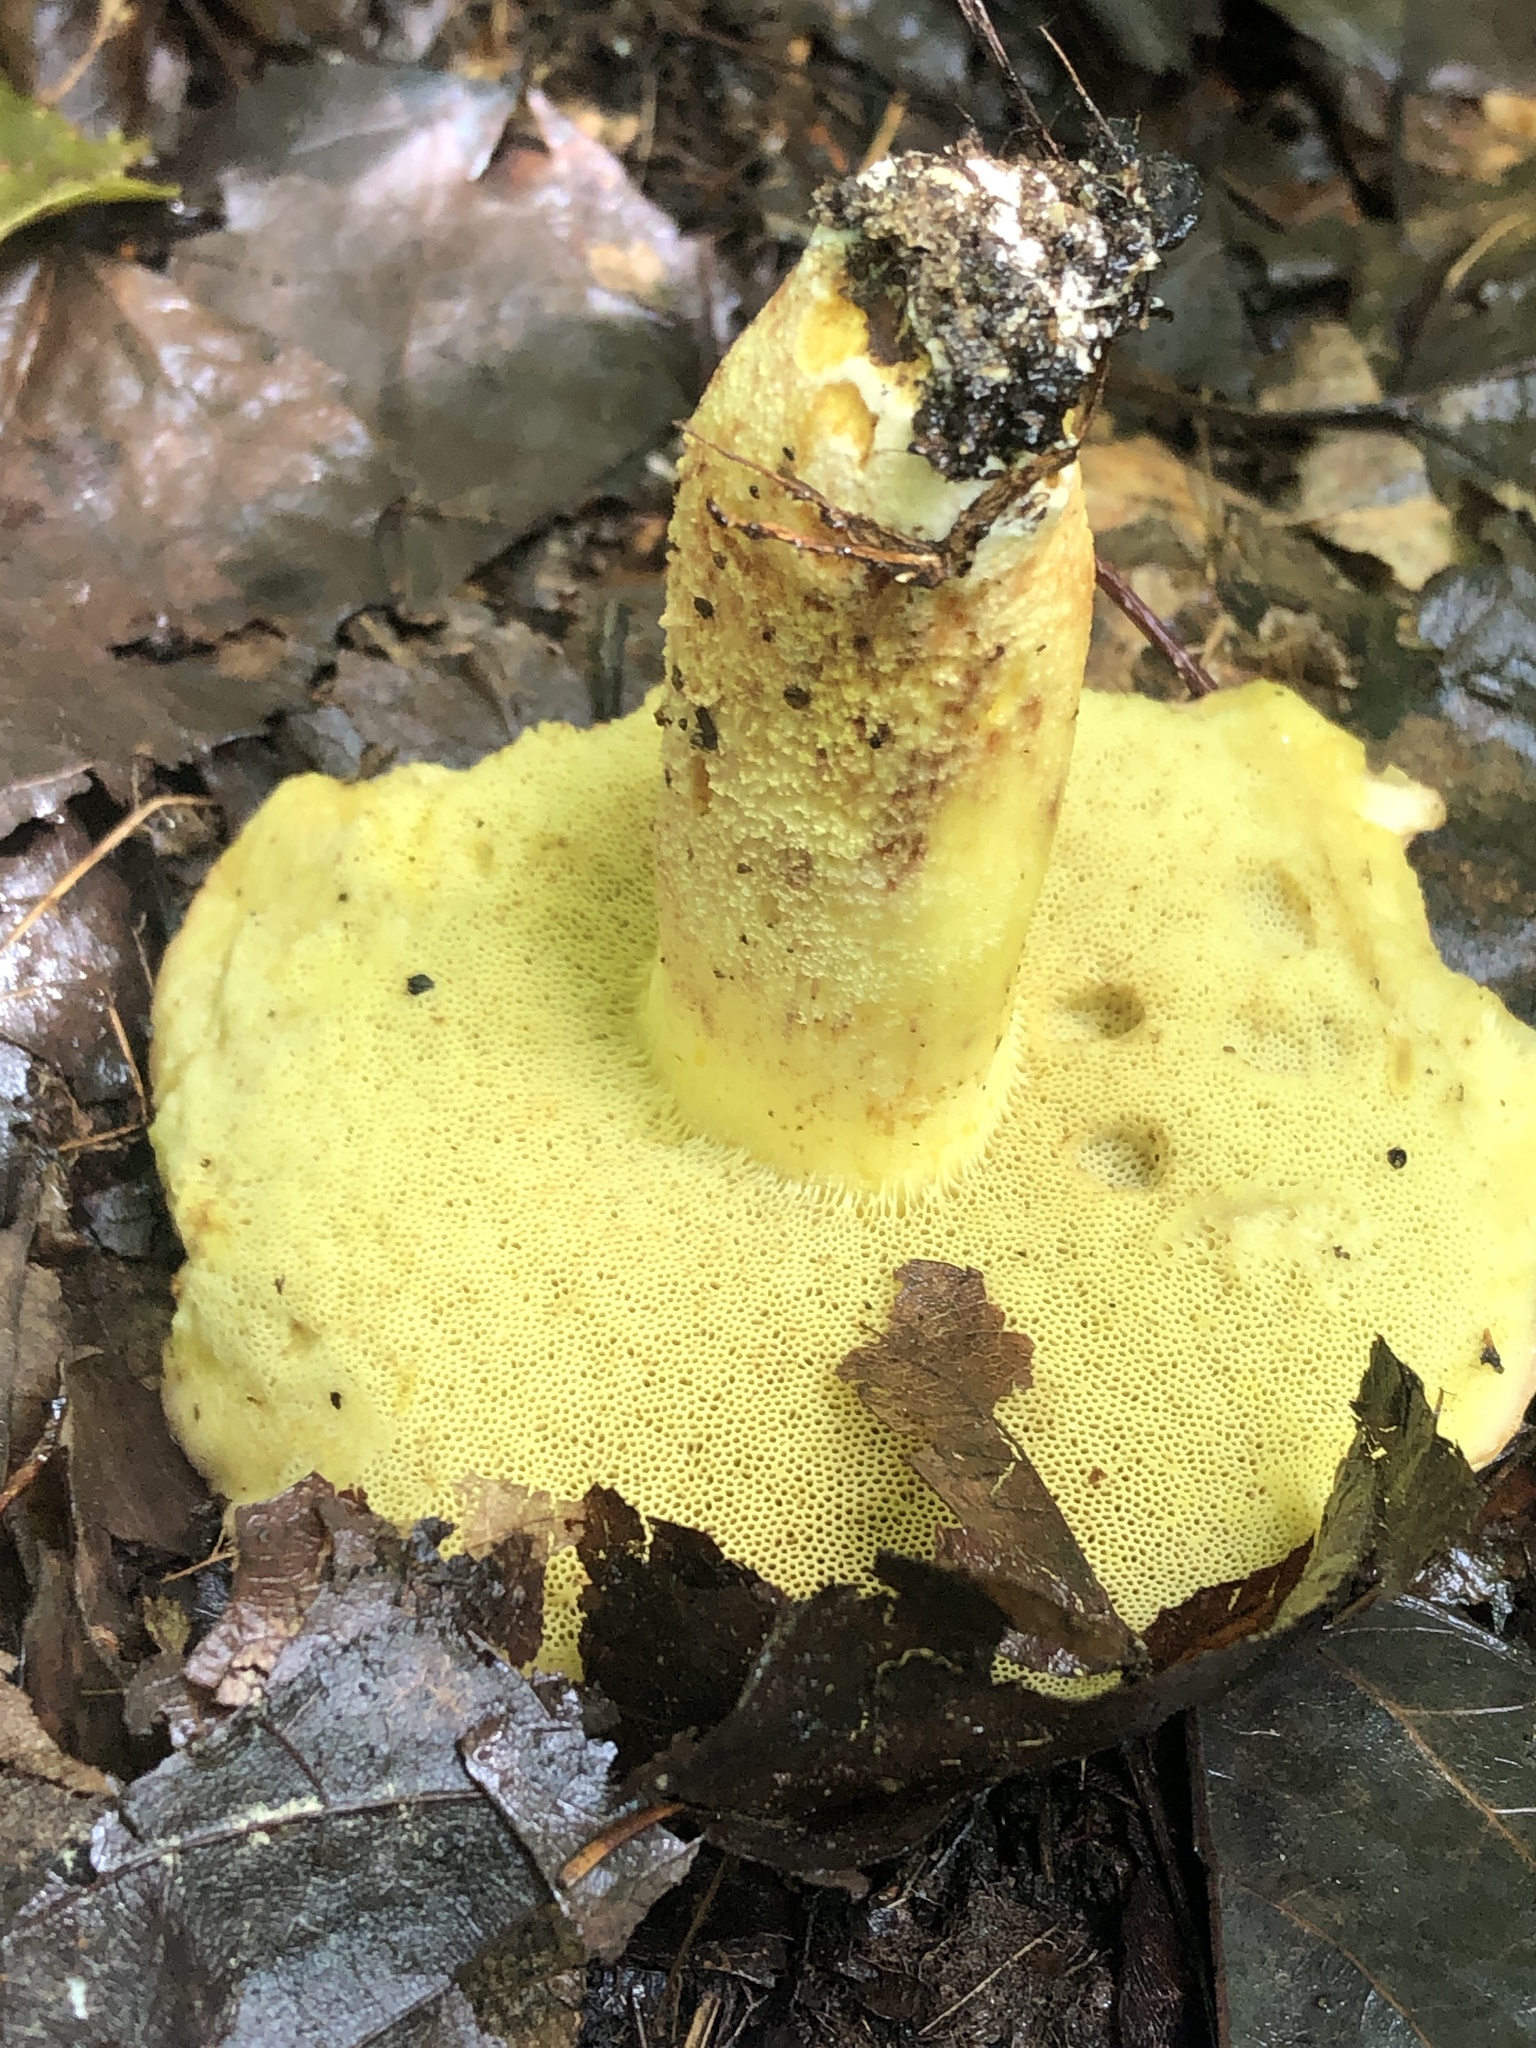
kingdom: Fungi
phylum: Basidiomycota
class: Agaricomycetes
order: Boletales
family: Boletaceae
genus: Hemileccinum
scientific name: Hemileccinum subglabripes
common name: Smoothish-stemmed bolete
